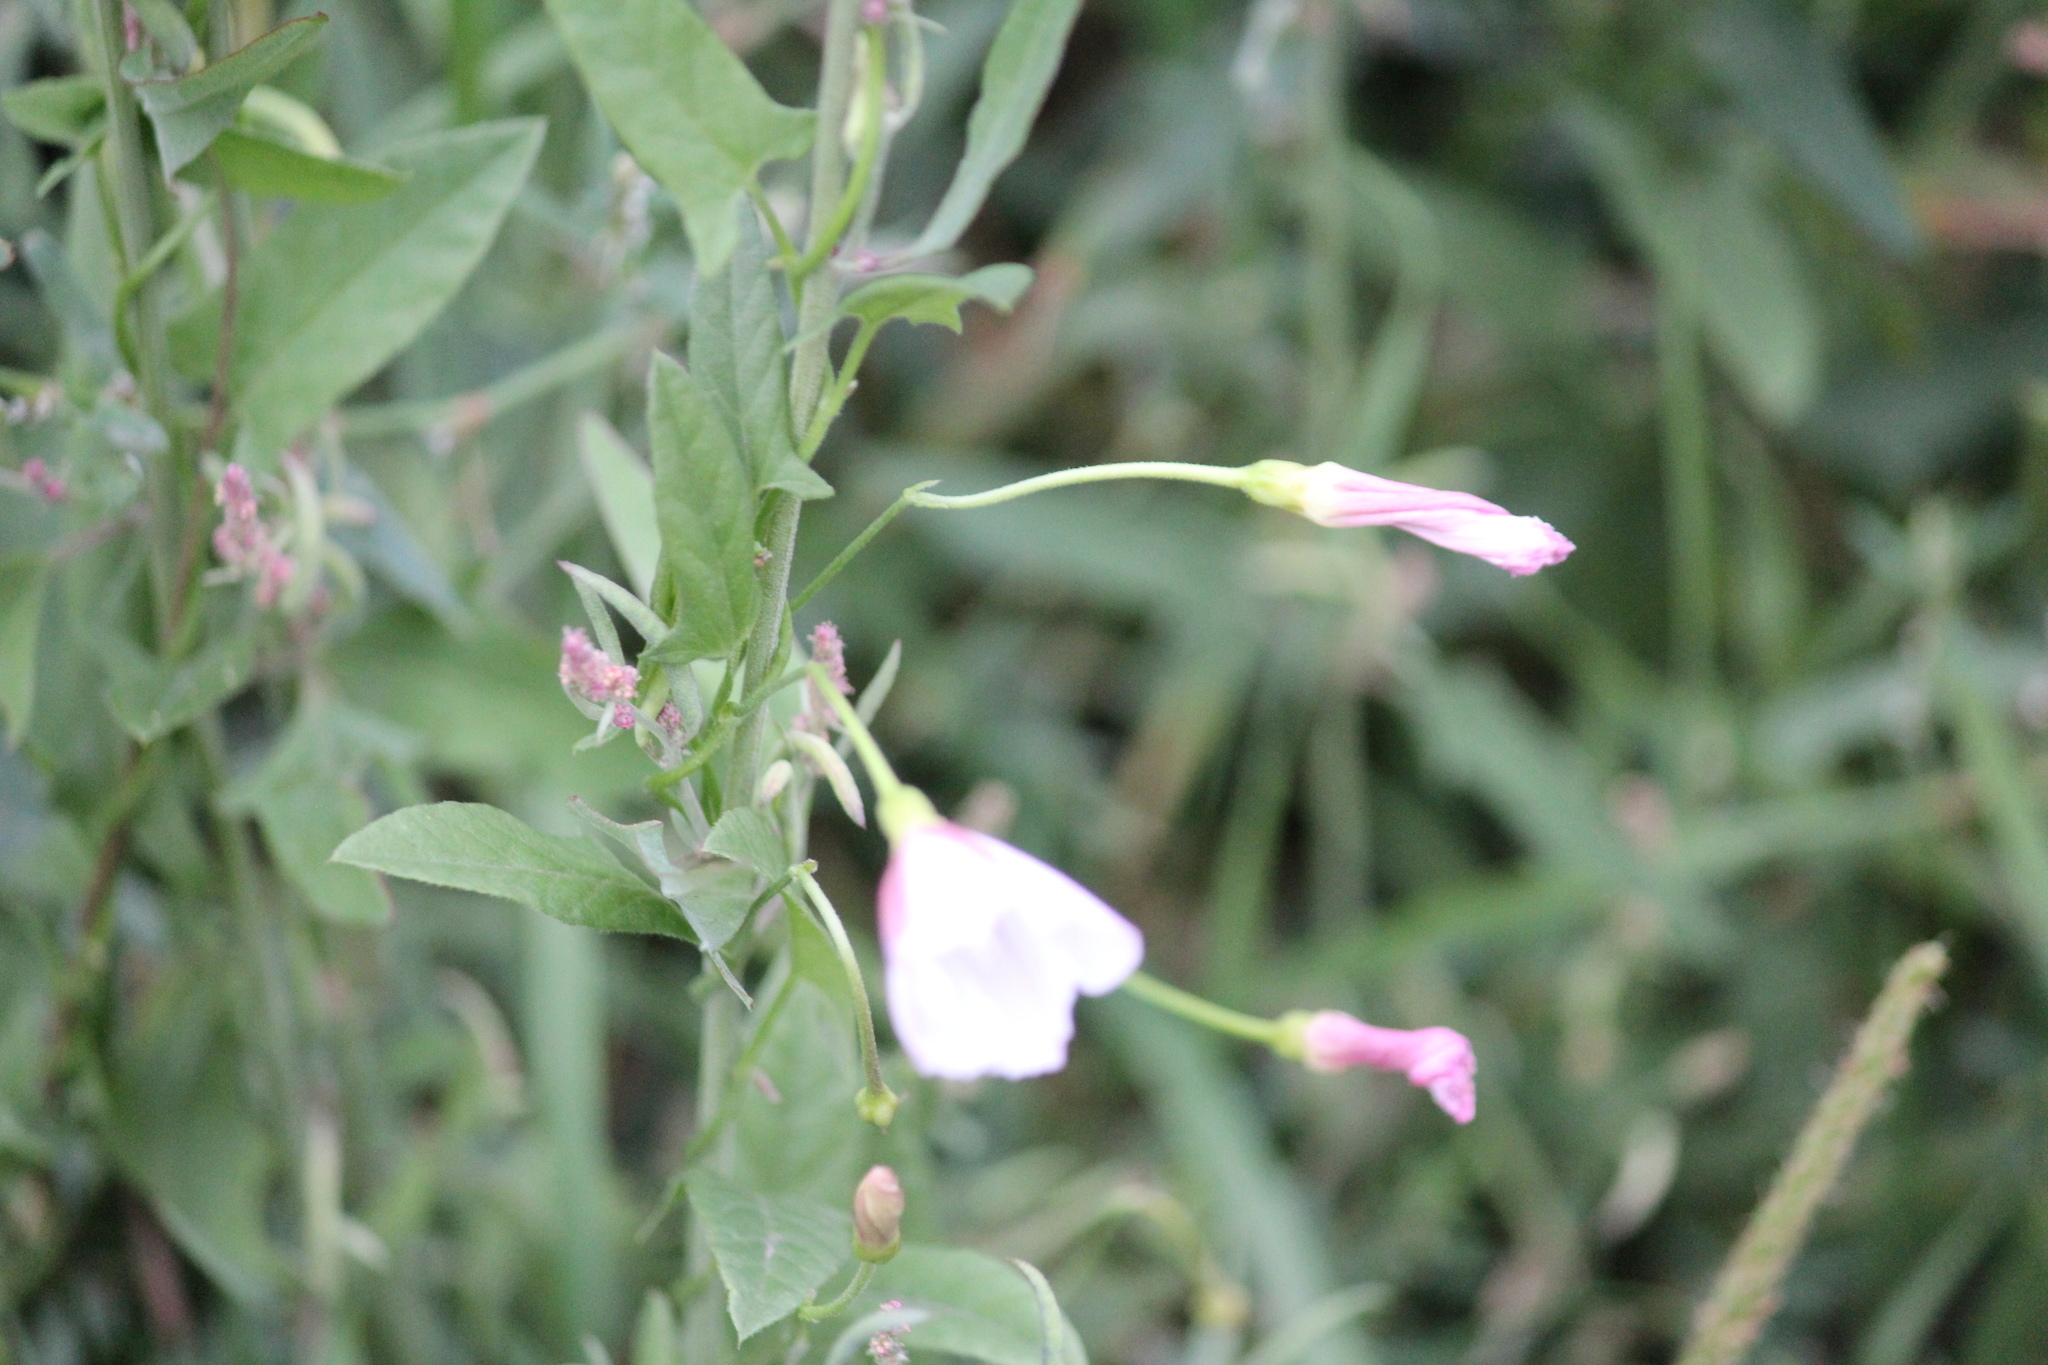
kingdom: Plantae
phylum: Tracheophyta
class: Magnoliopsida
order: Solanales
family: Convolvulaceae
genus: Convolvulus
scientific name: Convolvulus arvensis
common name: Field bindweed
